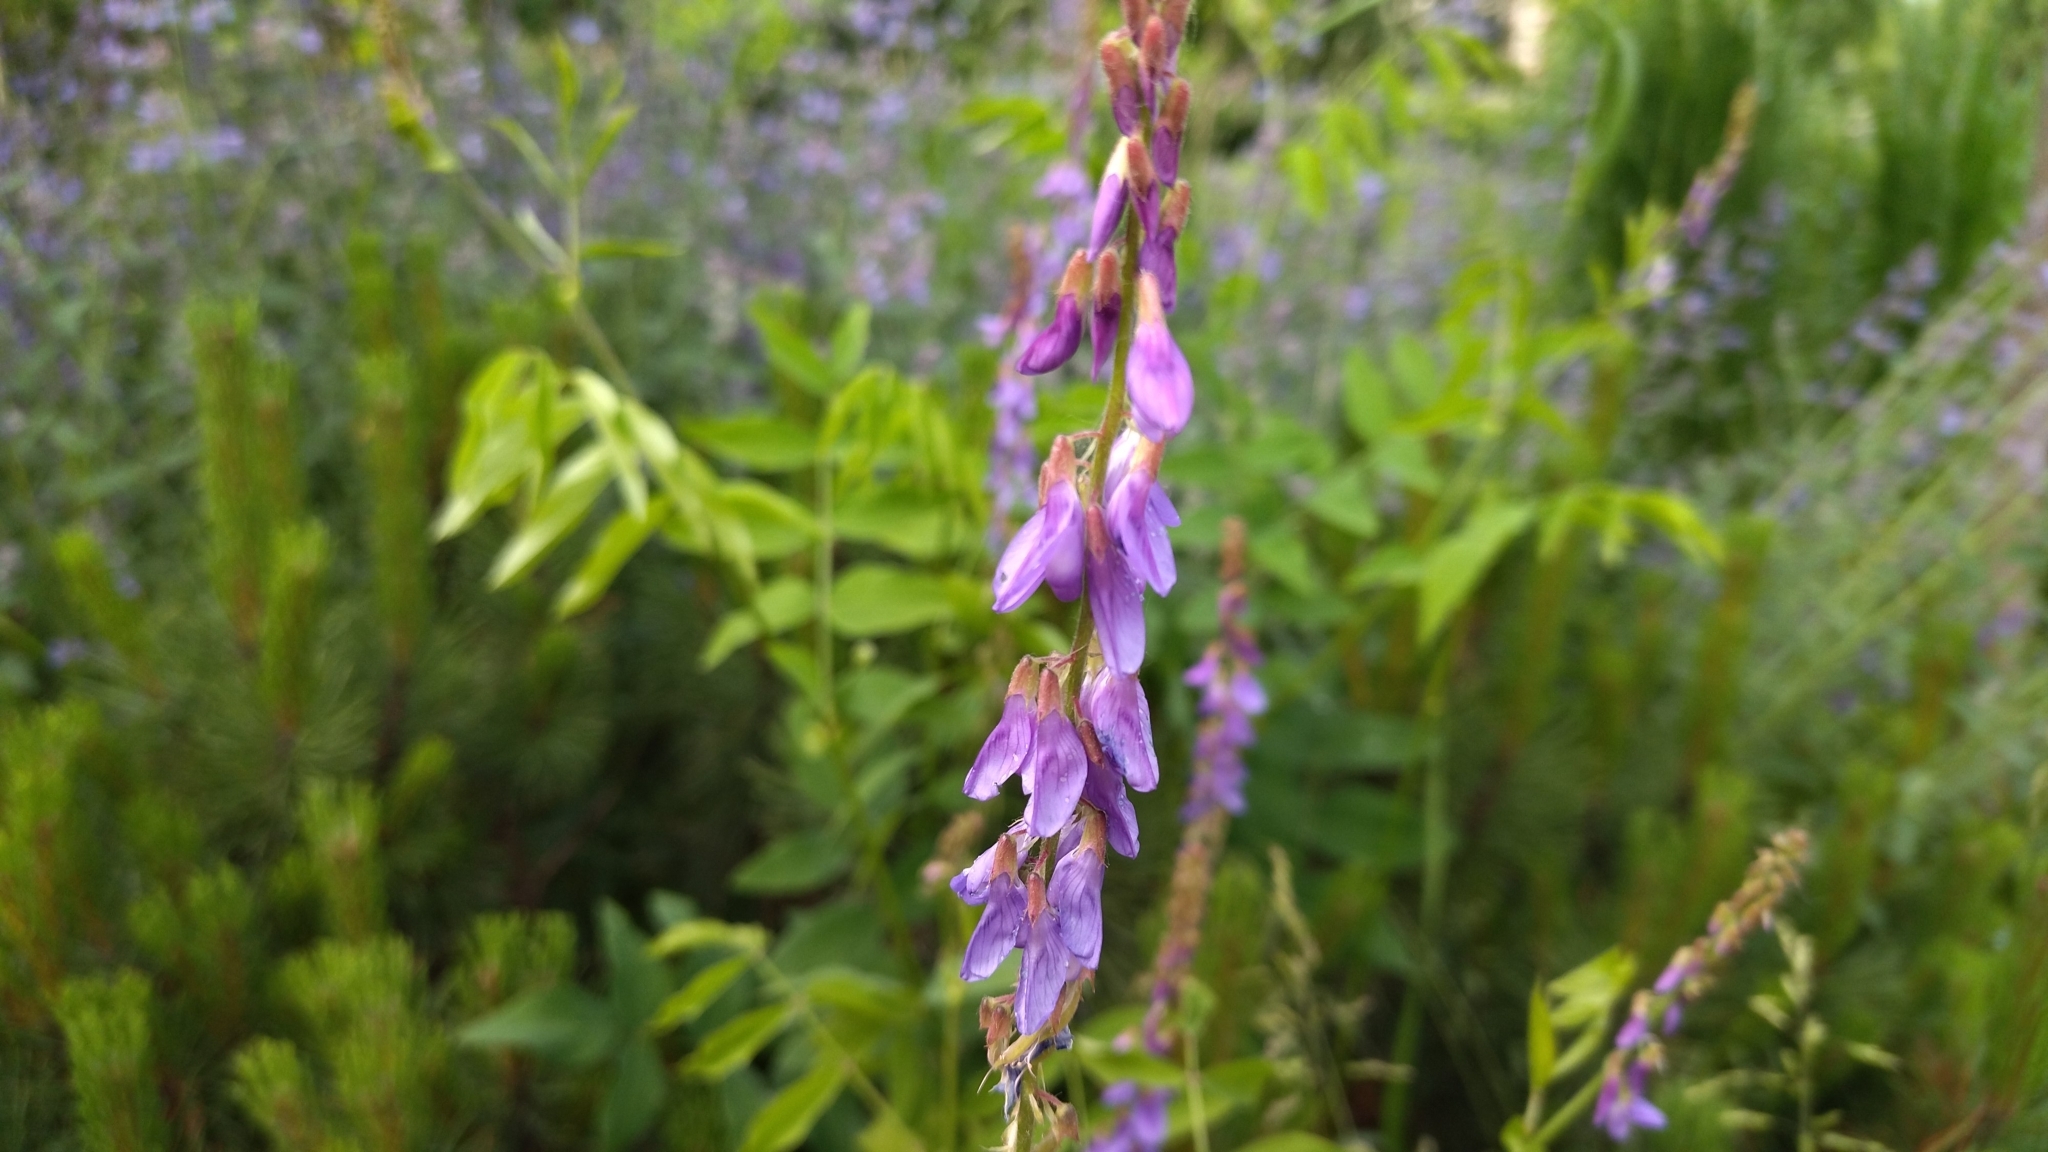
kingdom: Plantae
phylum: Tracheophyta
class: Magnoliopsida
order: Fabales
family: Fabaceae
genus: Galega
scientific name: Galega orientalis
